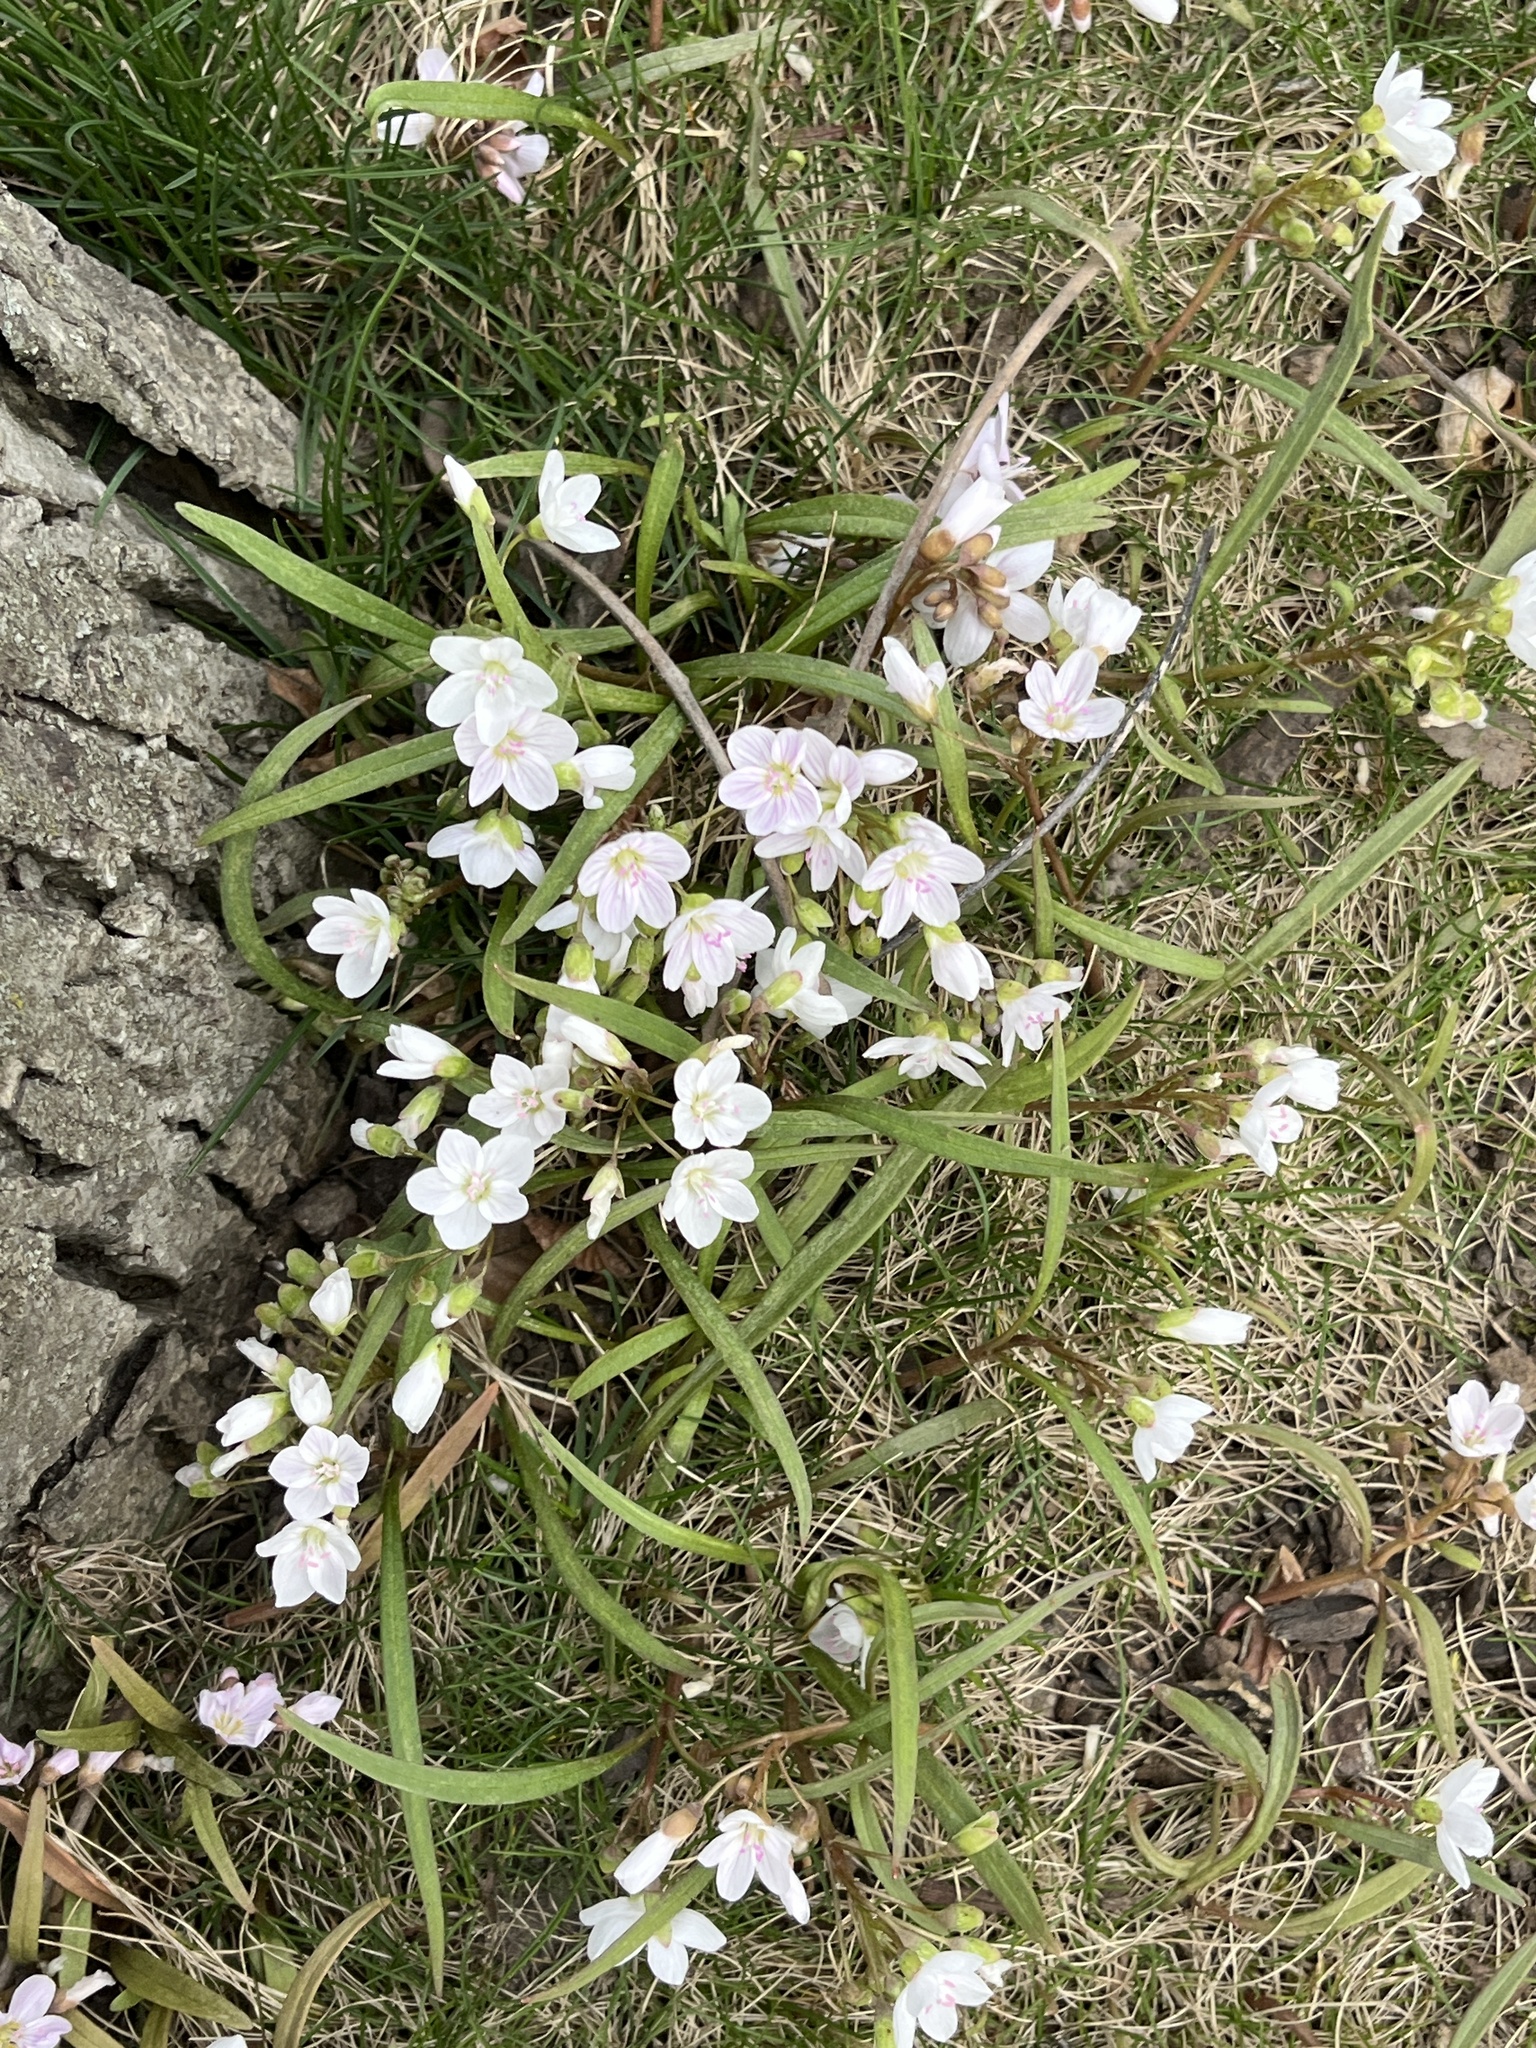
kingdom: Plantae
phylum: Tracheophyta
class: Magnoliopsida
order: Caryophyllales
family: Montiaceae
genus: Claytonia
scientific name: Claytonia virginica
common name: Virginia springbeauty
